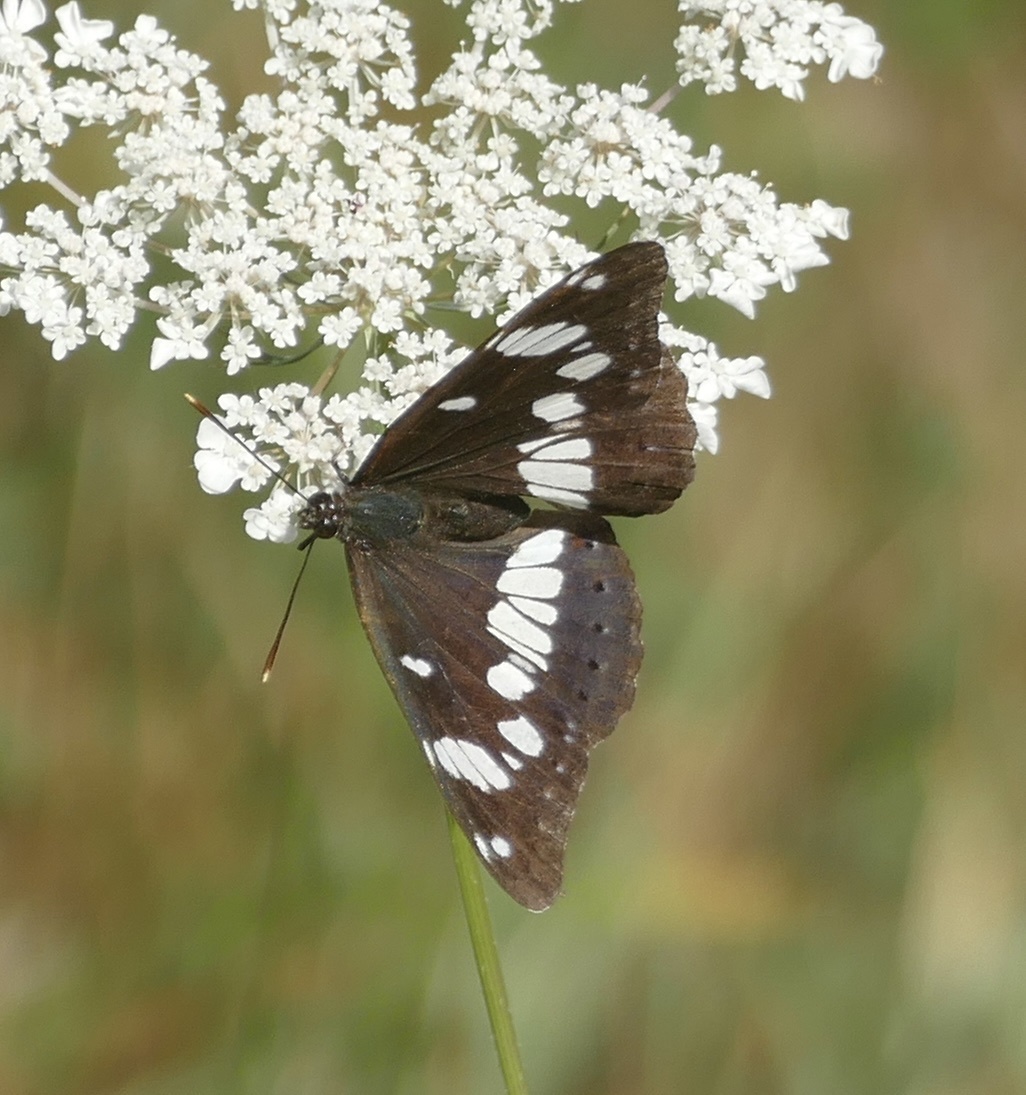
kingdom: Animalia
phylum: Arthropoda
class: Insecta
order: Lepidoptera
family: Nymphalidae
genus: Limenitis
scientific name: Limenitis reducta
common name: Southern white admiral
